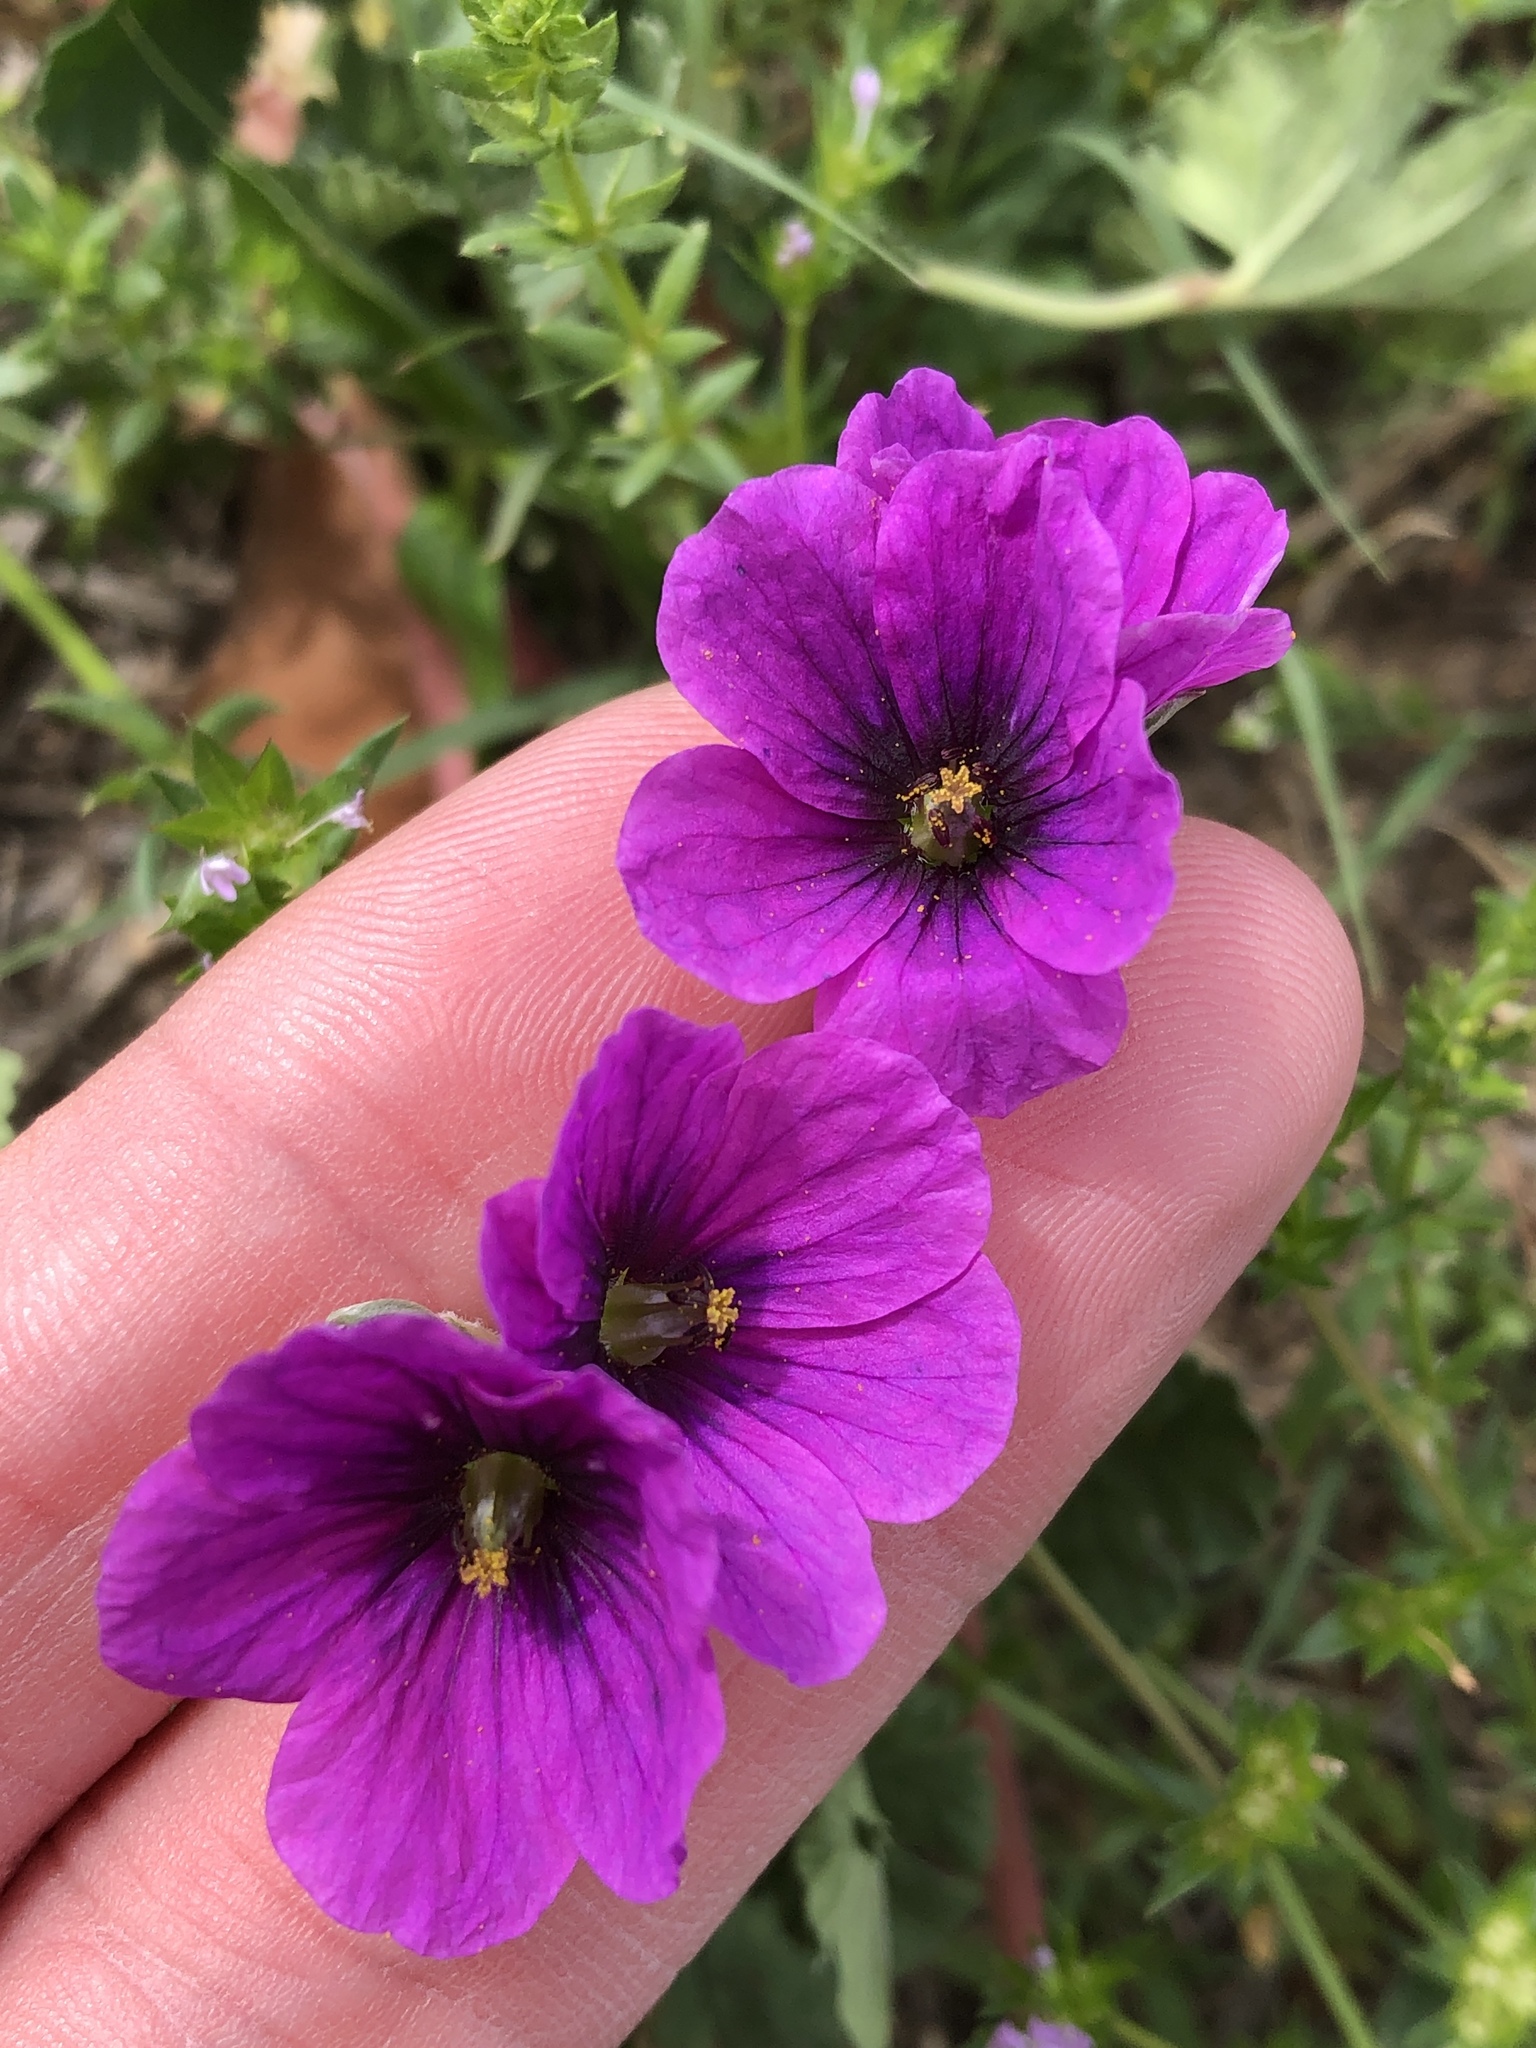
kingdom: Plantae
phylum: Tracheophyta
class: Magnoliopsida
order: Geraniales
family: Geraniaceae
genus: Erodium
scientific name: Erodium texanum
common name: Texas stork's-bill
